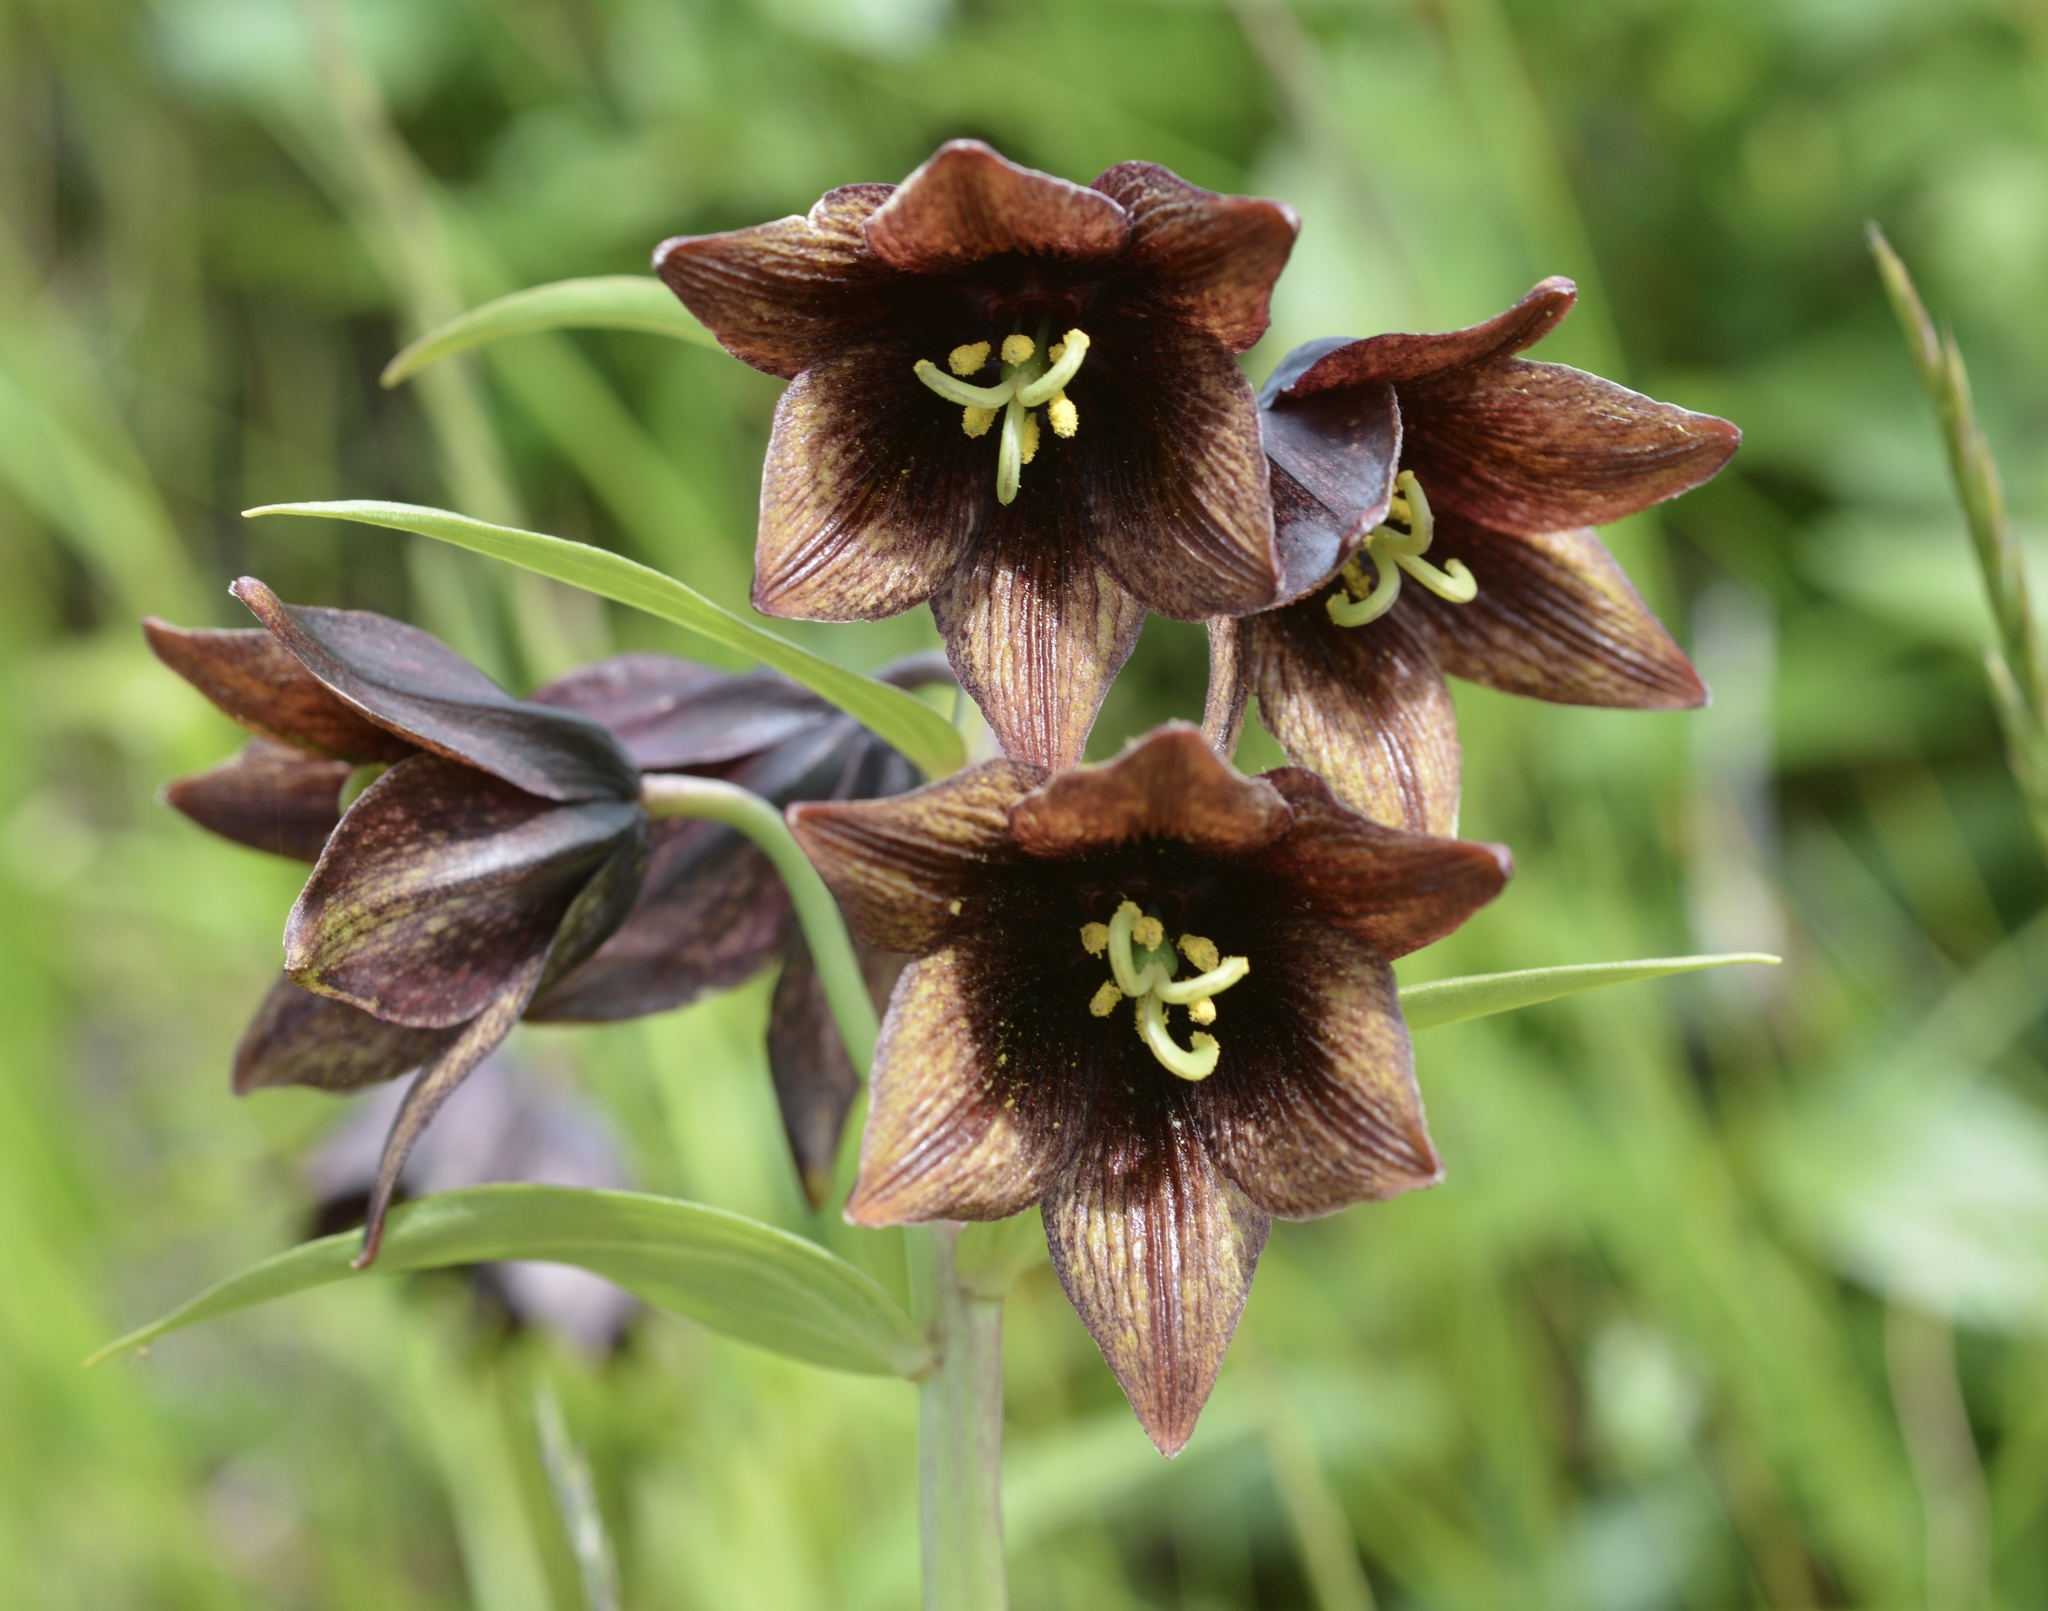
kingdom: Plantae
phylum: Tracheophyta
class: Liliopsida
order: Liliales
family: Liliaceae
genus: Fritillaria
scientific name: Fritillaria camschatcensis
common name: Kamchatka fritillary
